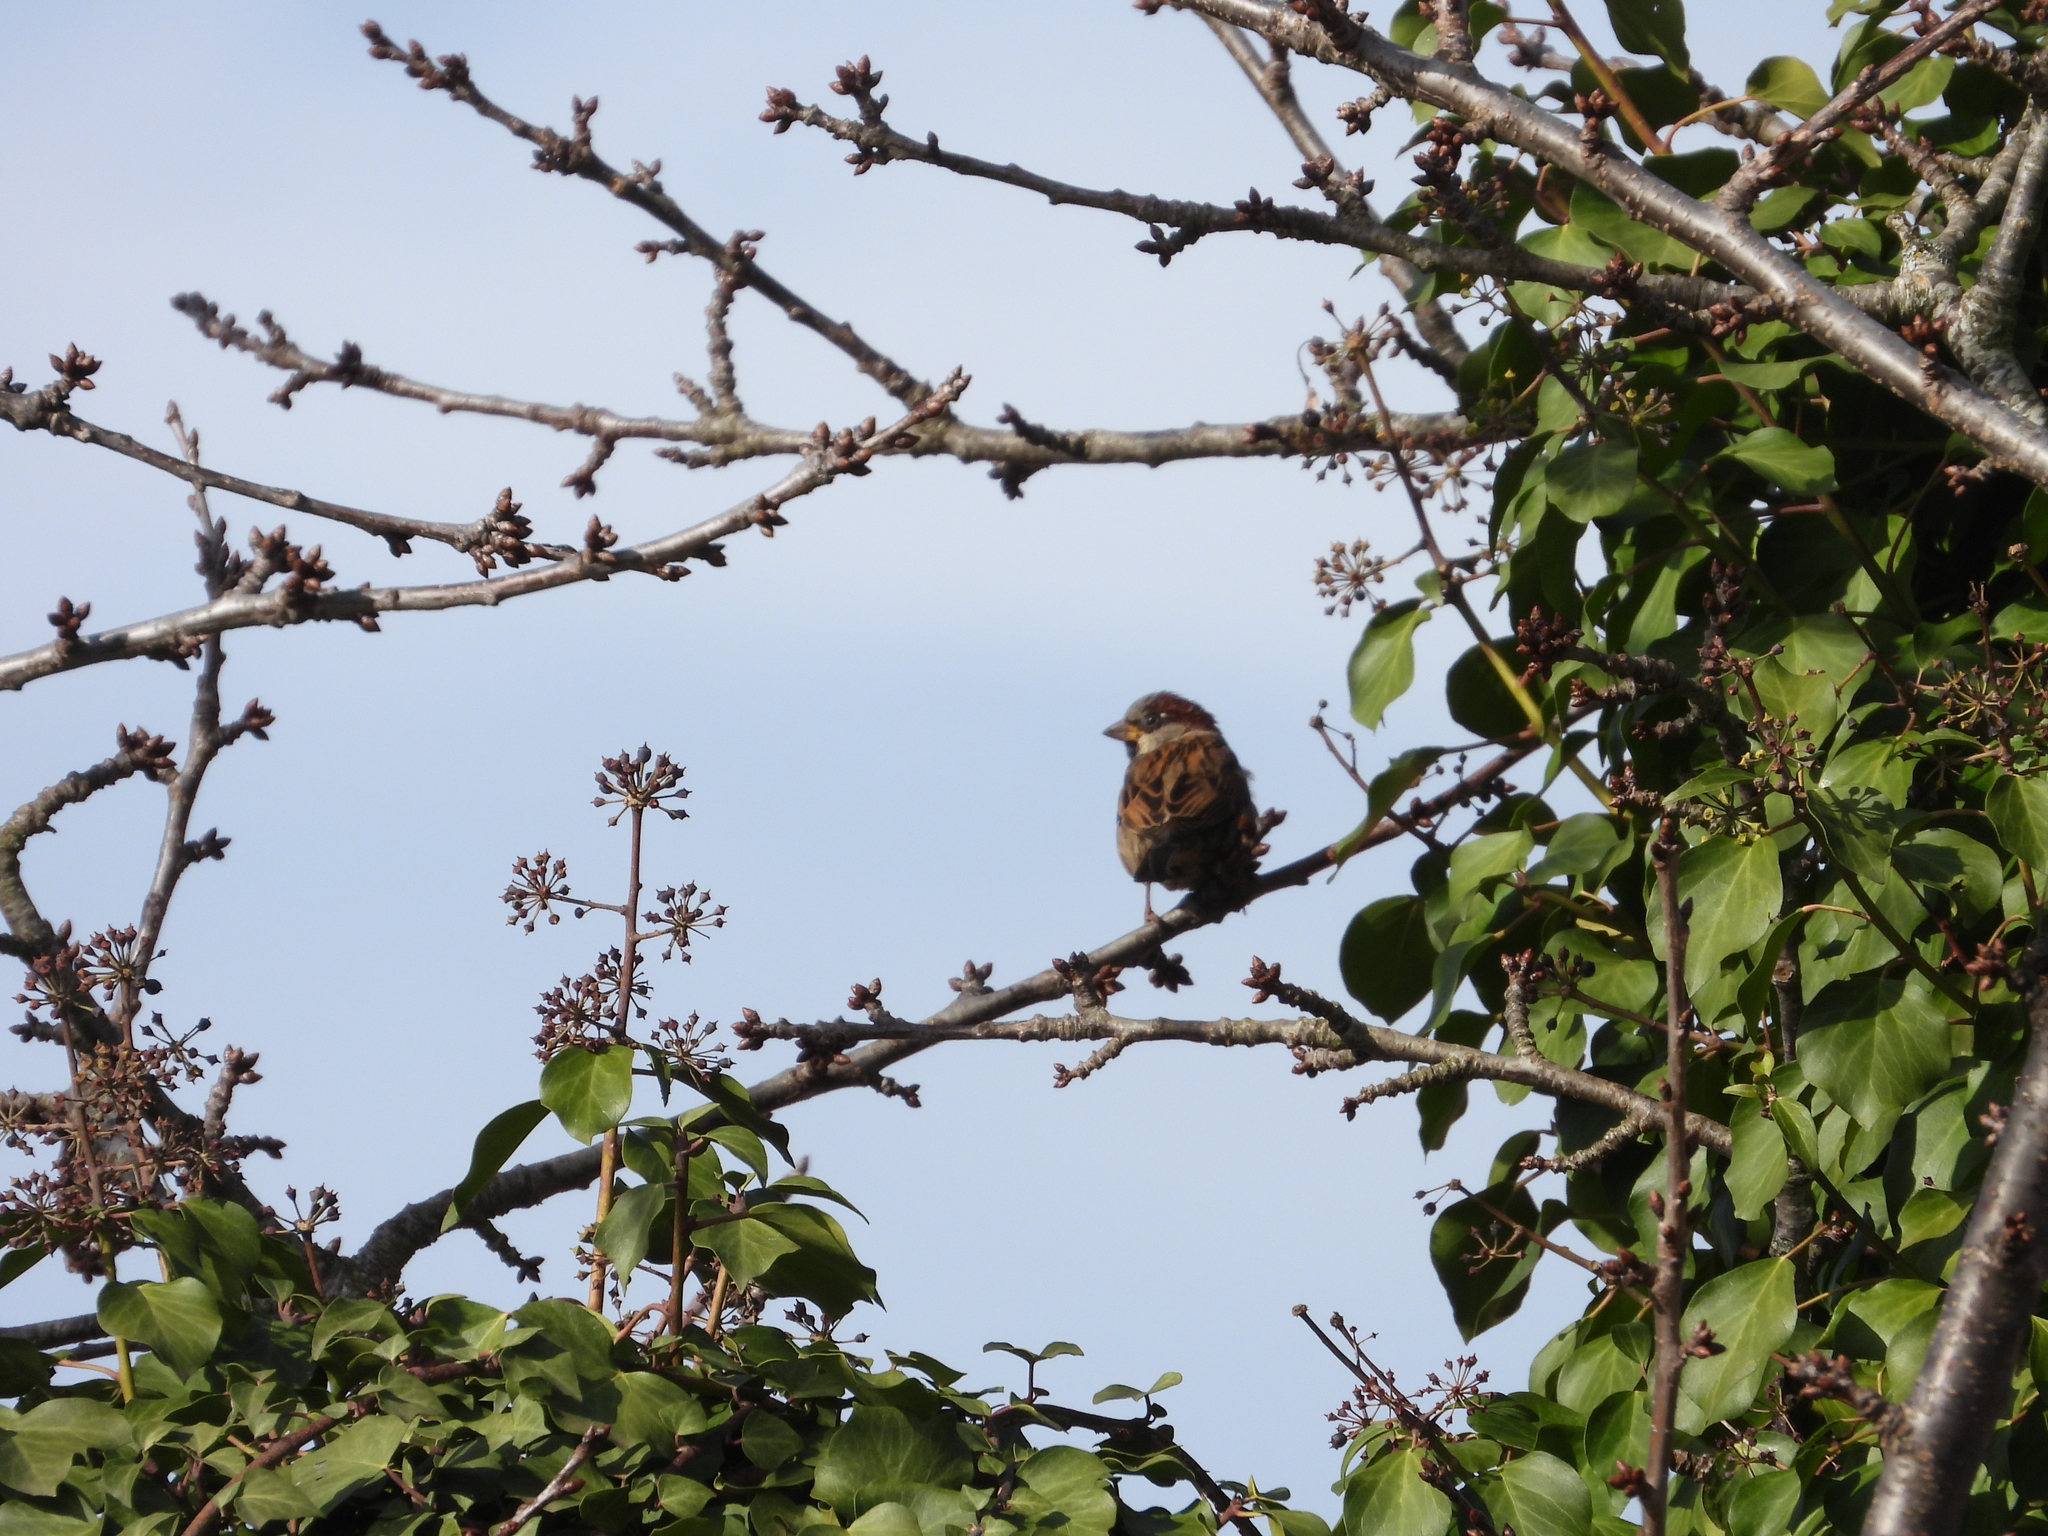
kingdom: Animalia
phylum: Chordata
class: Aves
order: Passeriformes
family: Passeridae
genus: Passer
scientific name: Passer domesticus
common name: House sparrow
